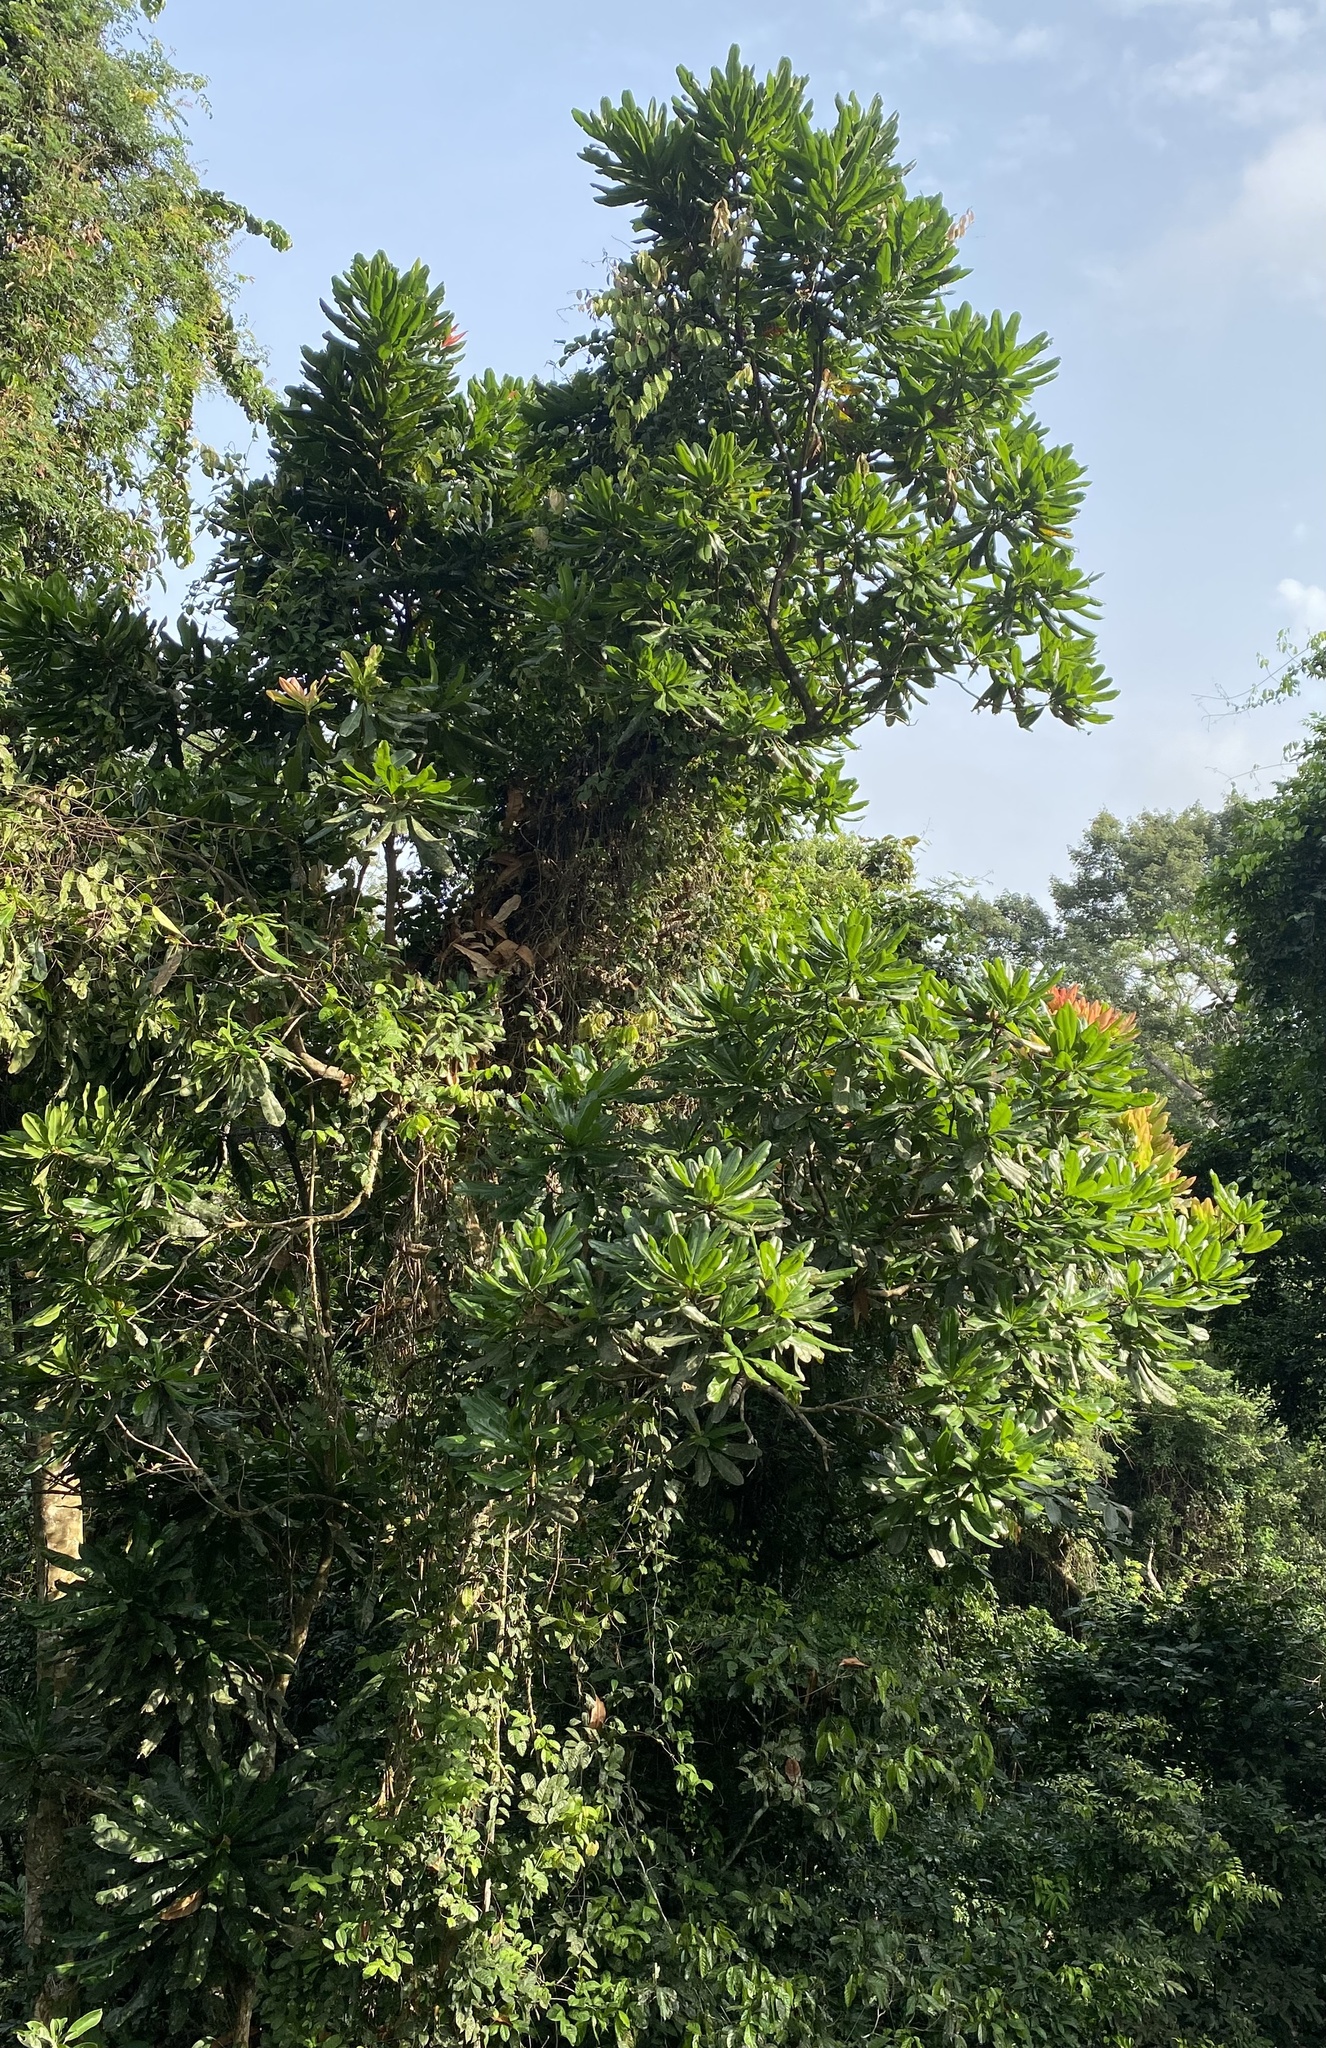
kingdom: Plantae
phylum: Tracheophyta
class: Magnoliopsida
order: Malpighiales
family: Ochnaceae
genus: Lophira
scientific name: Lophira alata
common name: Azobe
